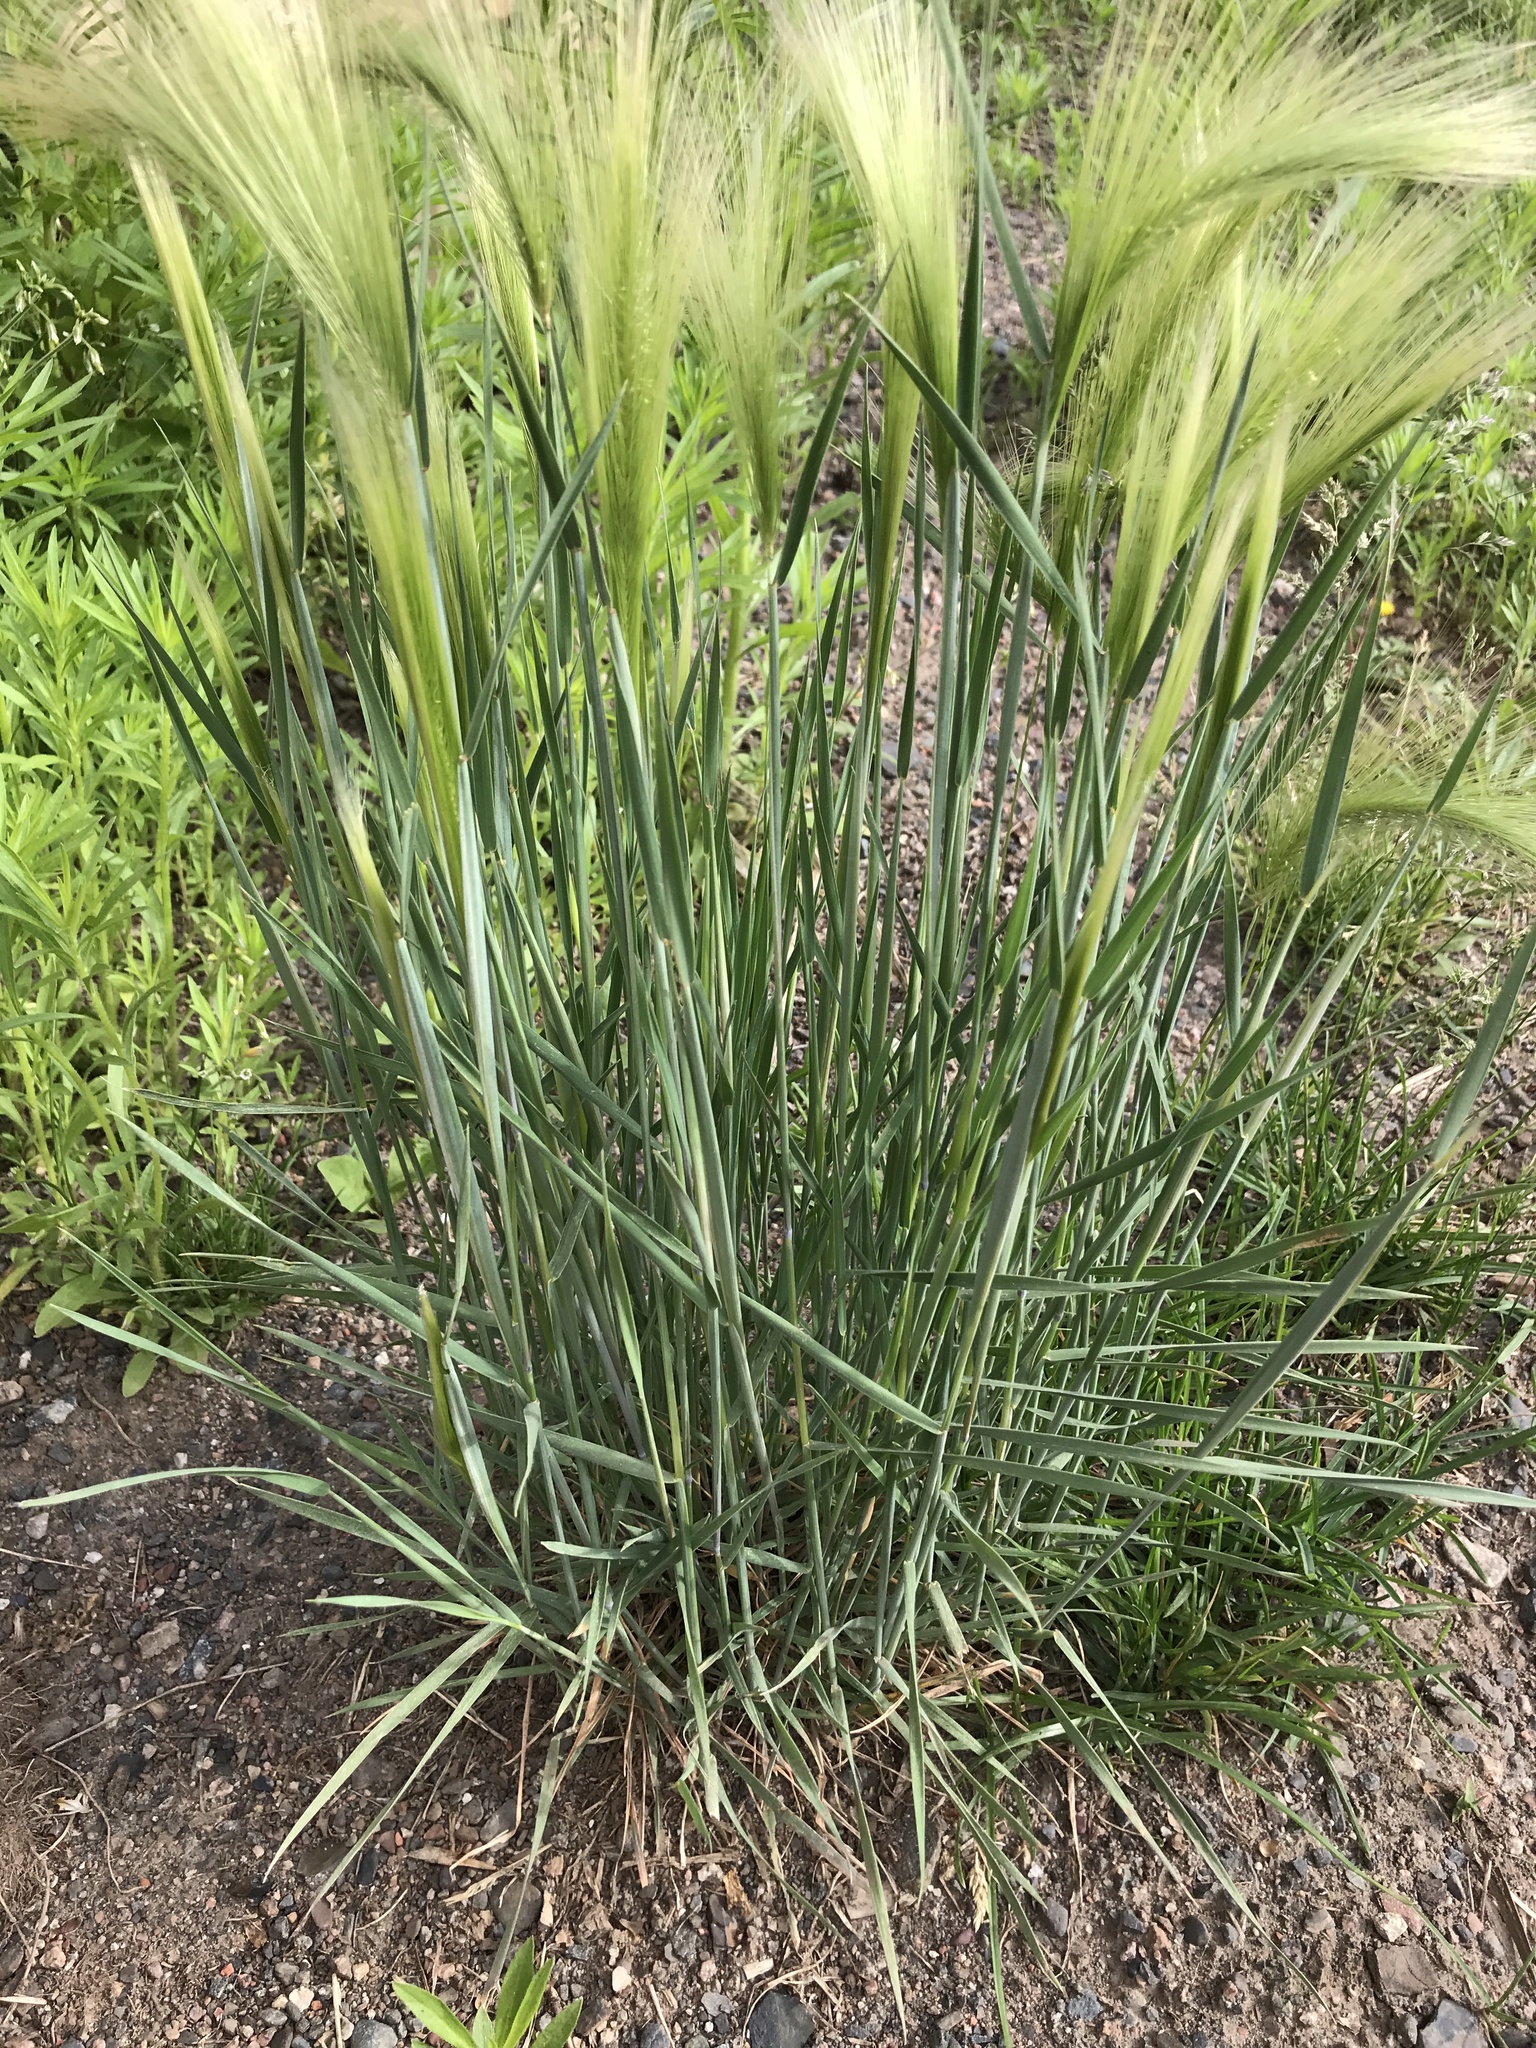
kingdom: Plantae
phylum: Tracheophyta
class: Liliopsida
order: Poales
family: Poaceae
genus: Hordeum
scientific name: Hordeum jubatum
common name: Foxtail barley
